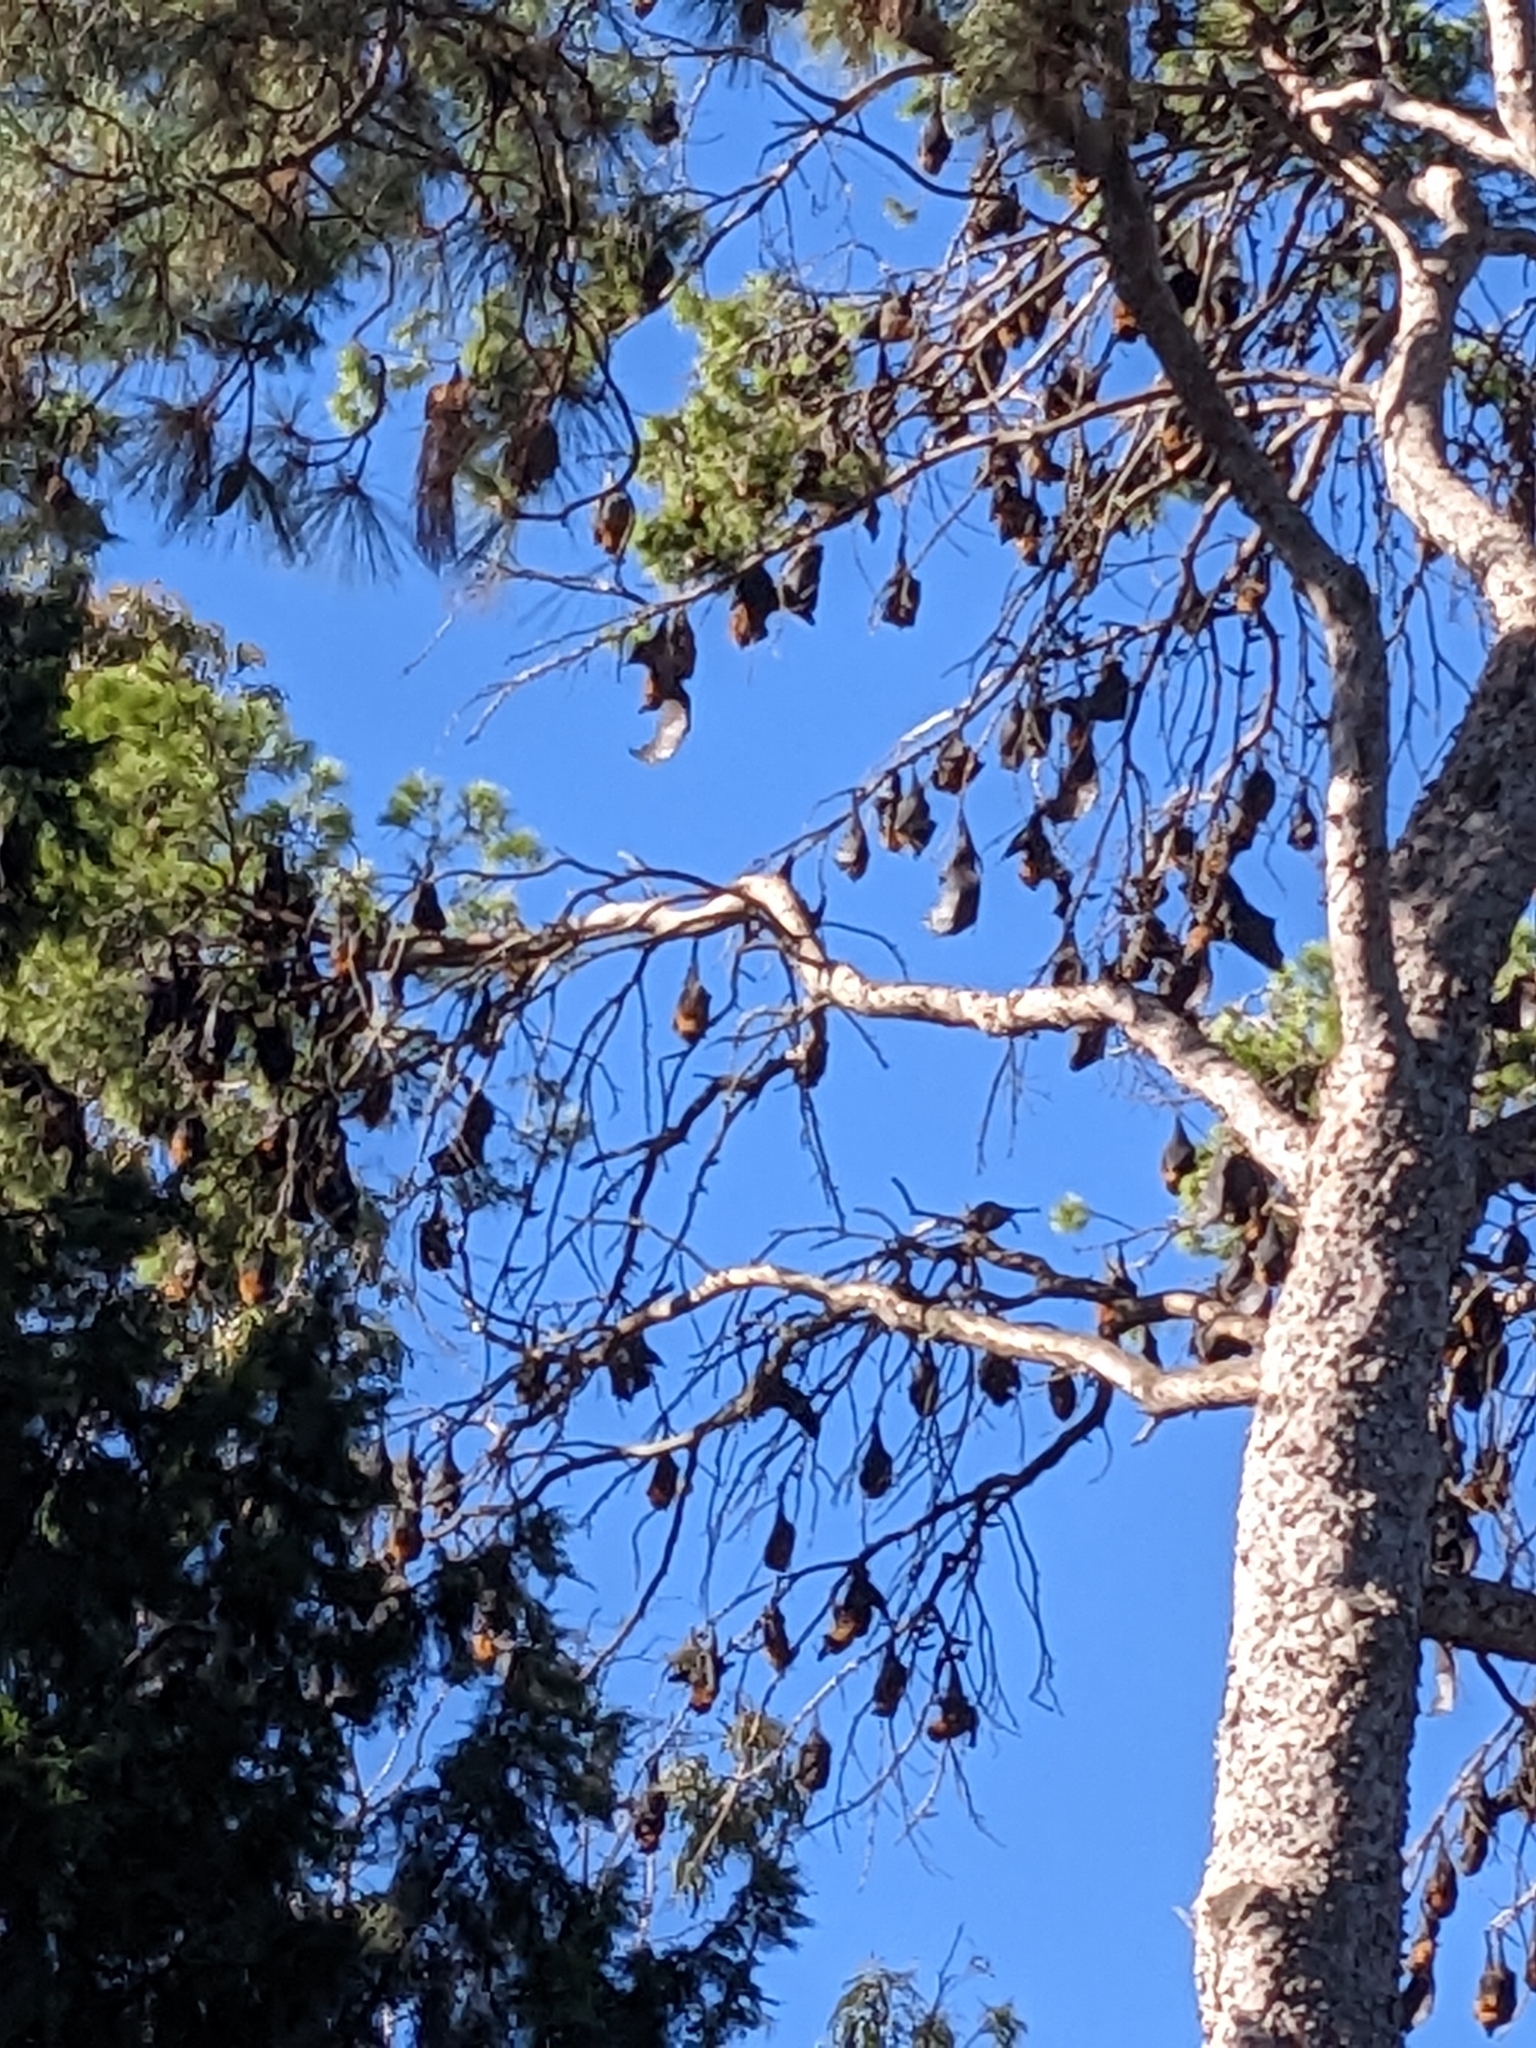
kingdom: Animalia
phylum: Chordata
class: Mammalia
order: Chiroptera
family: Pteropodidae
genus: Pteropus
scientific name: Pteropus poliocephalus
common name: Gray-headed flying fox
